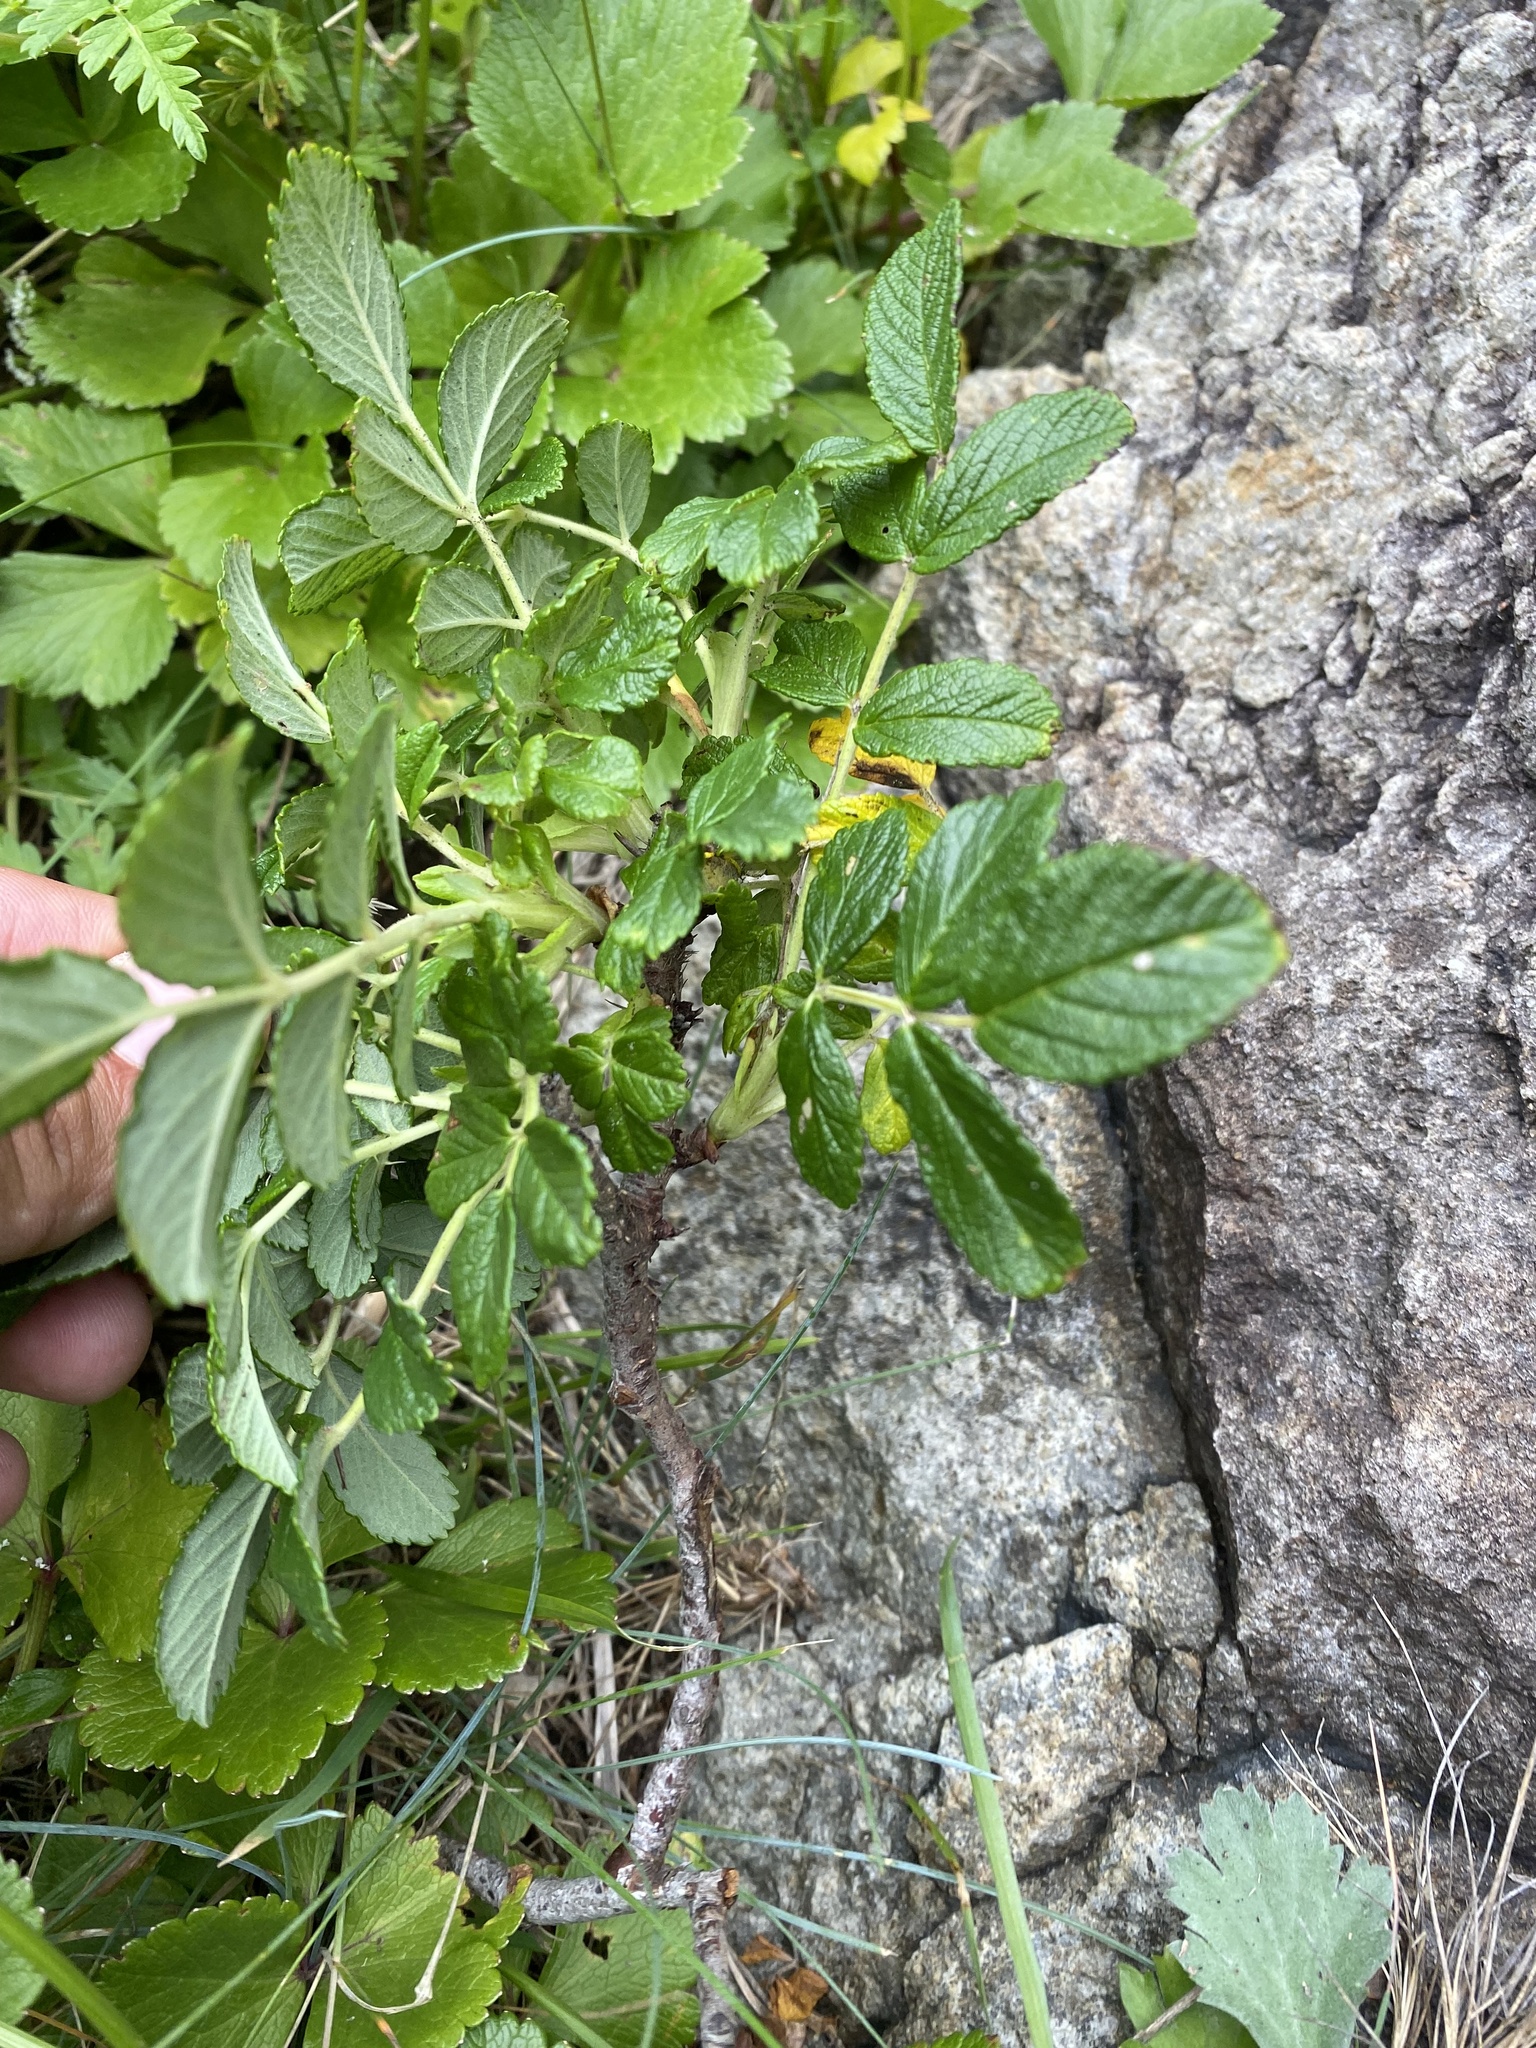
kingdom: Plantae
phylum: Tracheophyta
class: Magnoliopsida
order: Rosales
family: Rosaceae
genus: Rosa
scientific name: Rosa rugosa
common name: Japanese rose
